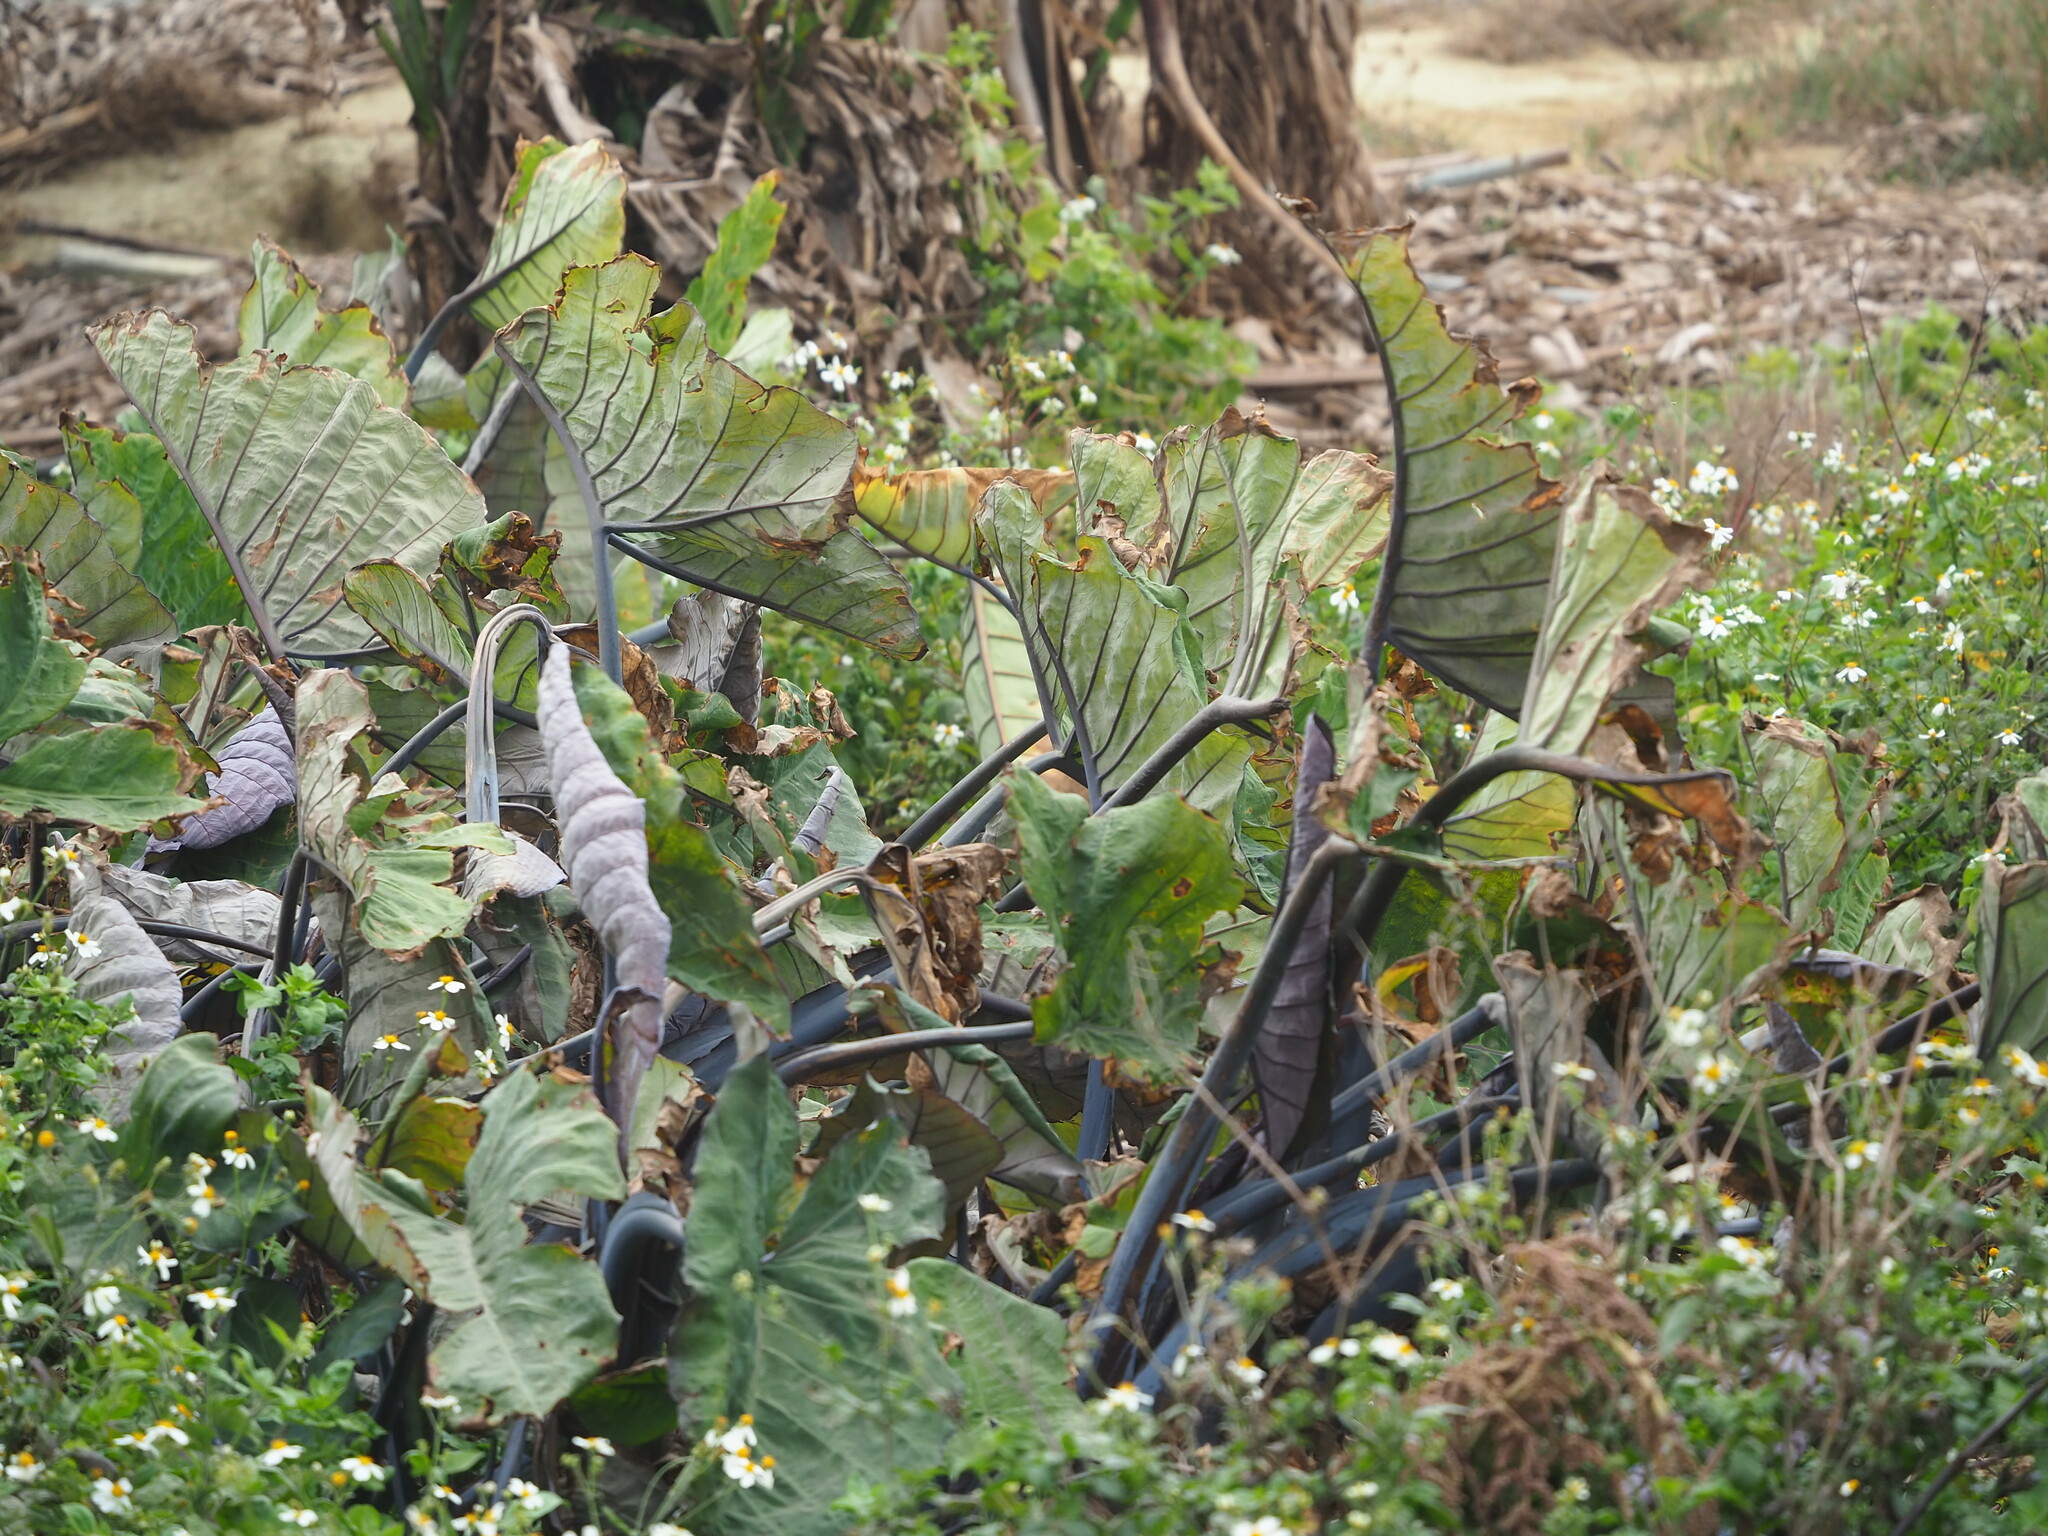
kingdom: Plantae
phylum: Tracheophyta
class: Liliopsida
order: Alismatales
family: Araceae
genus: Xanthosoma
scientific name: Xanthosoma sagittifolium
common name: Arrowleaf elephant's ear
